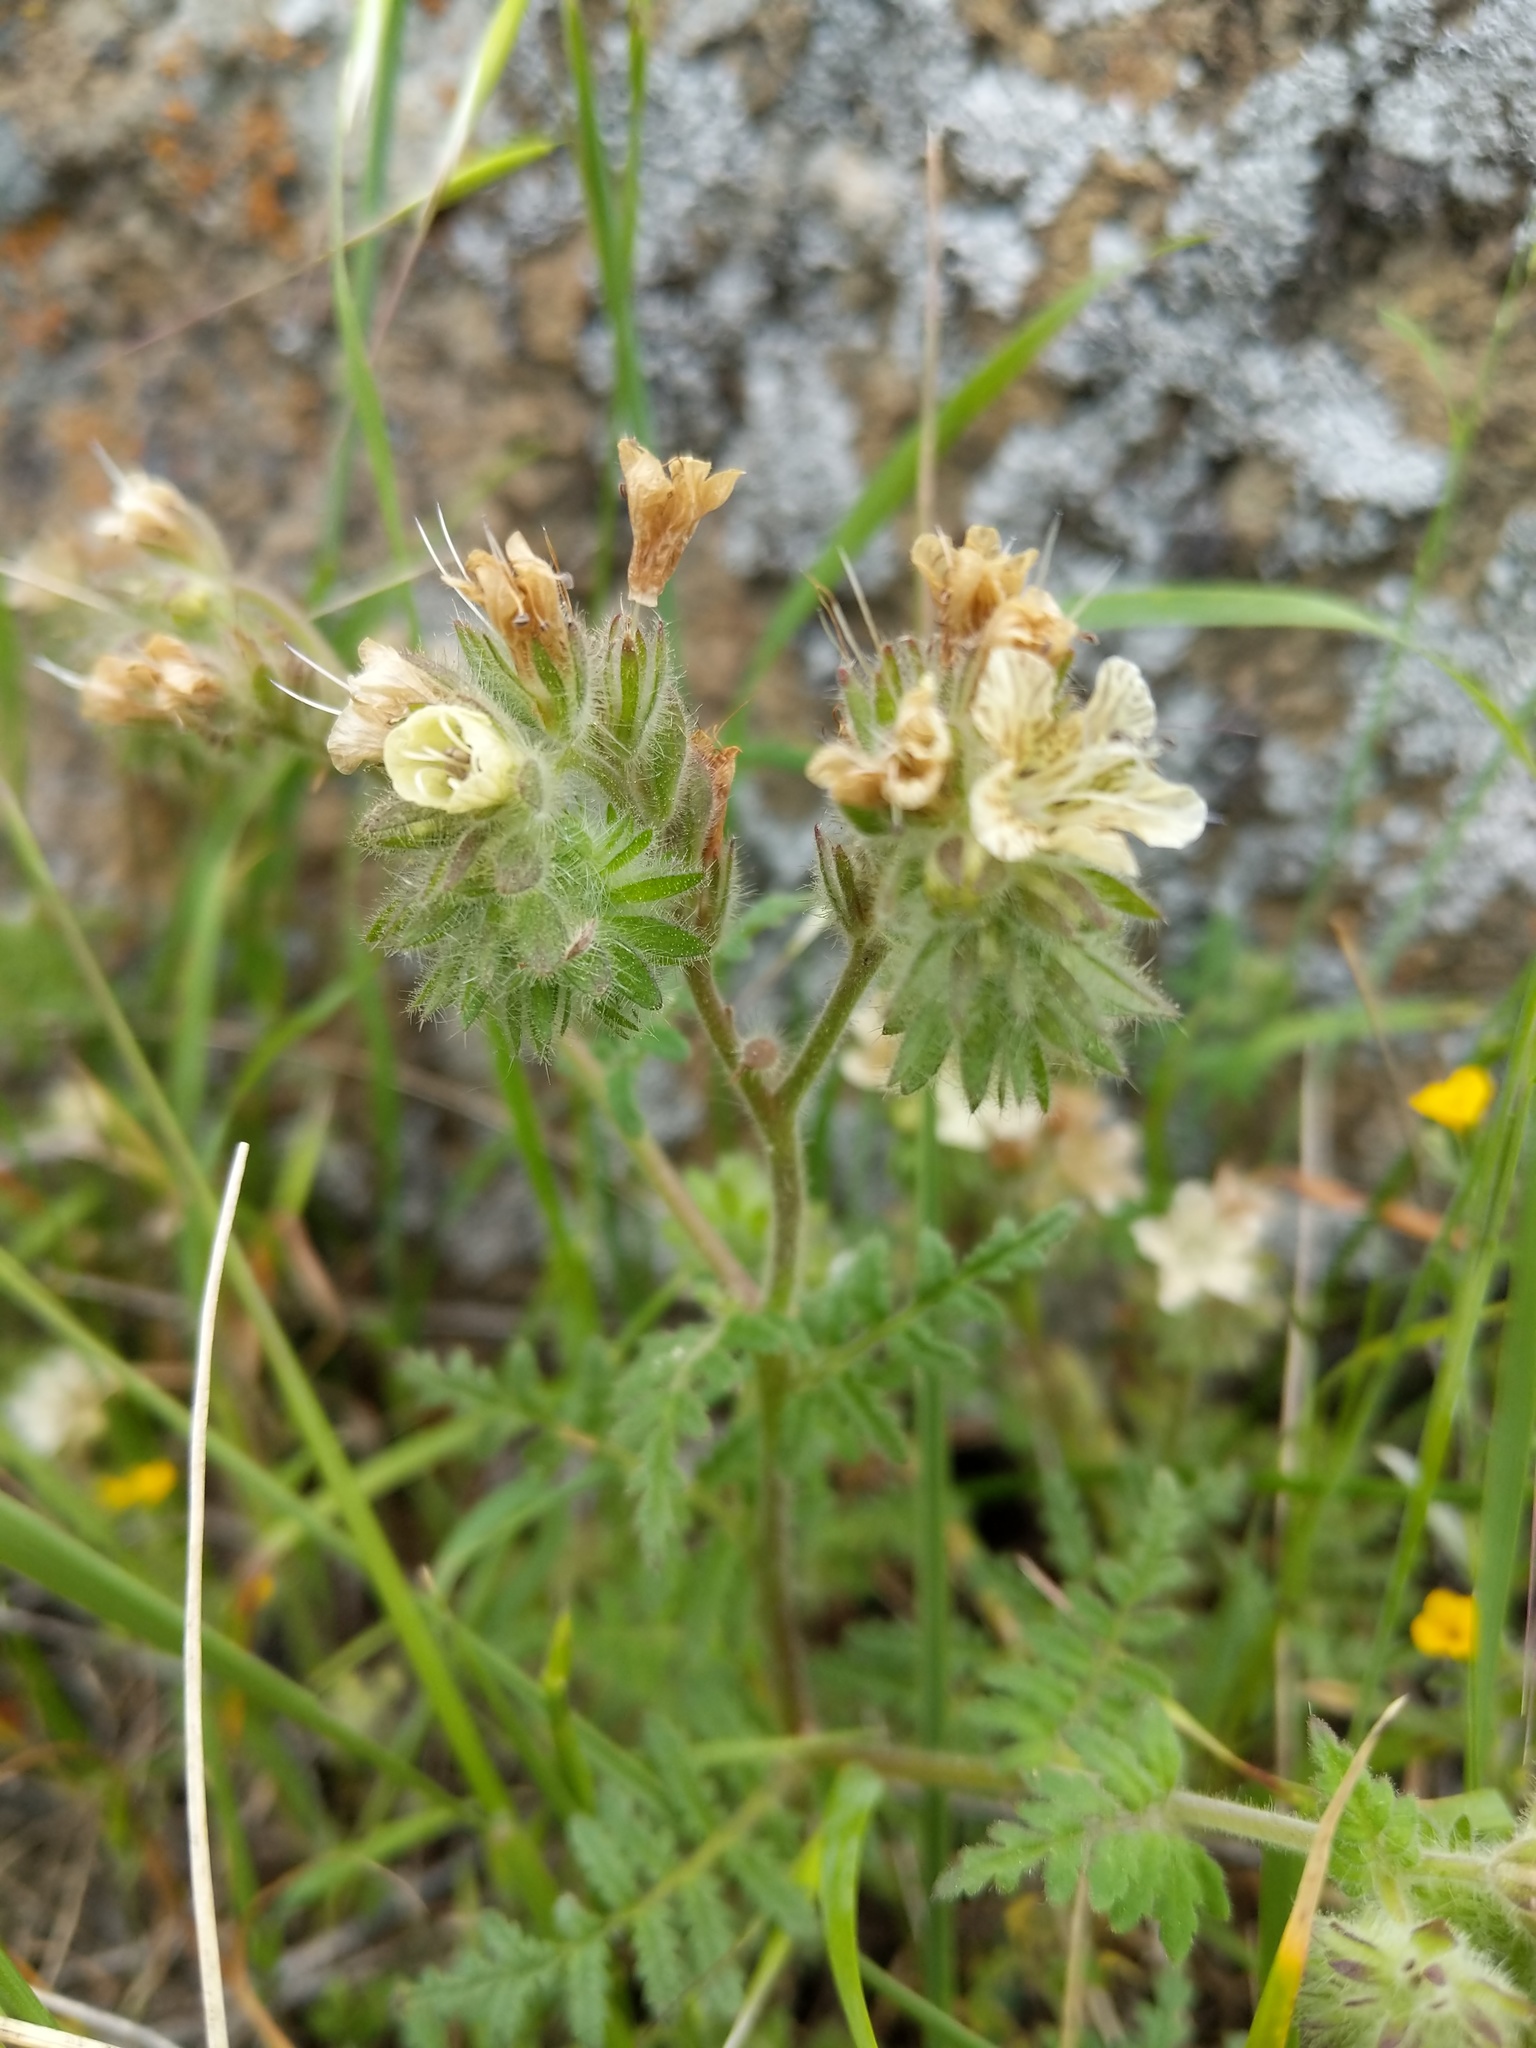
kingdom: Plantae
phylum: Tracheophyta
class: Magnoliopsida
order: Boraginales
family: Hydrophyllaceae
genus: Phacelia
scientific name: Phacelia distans
